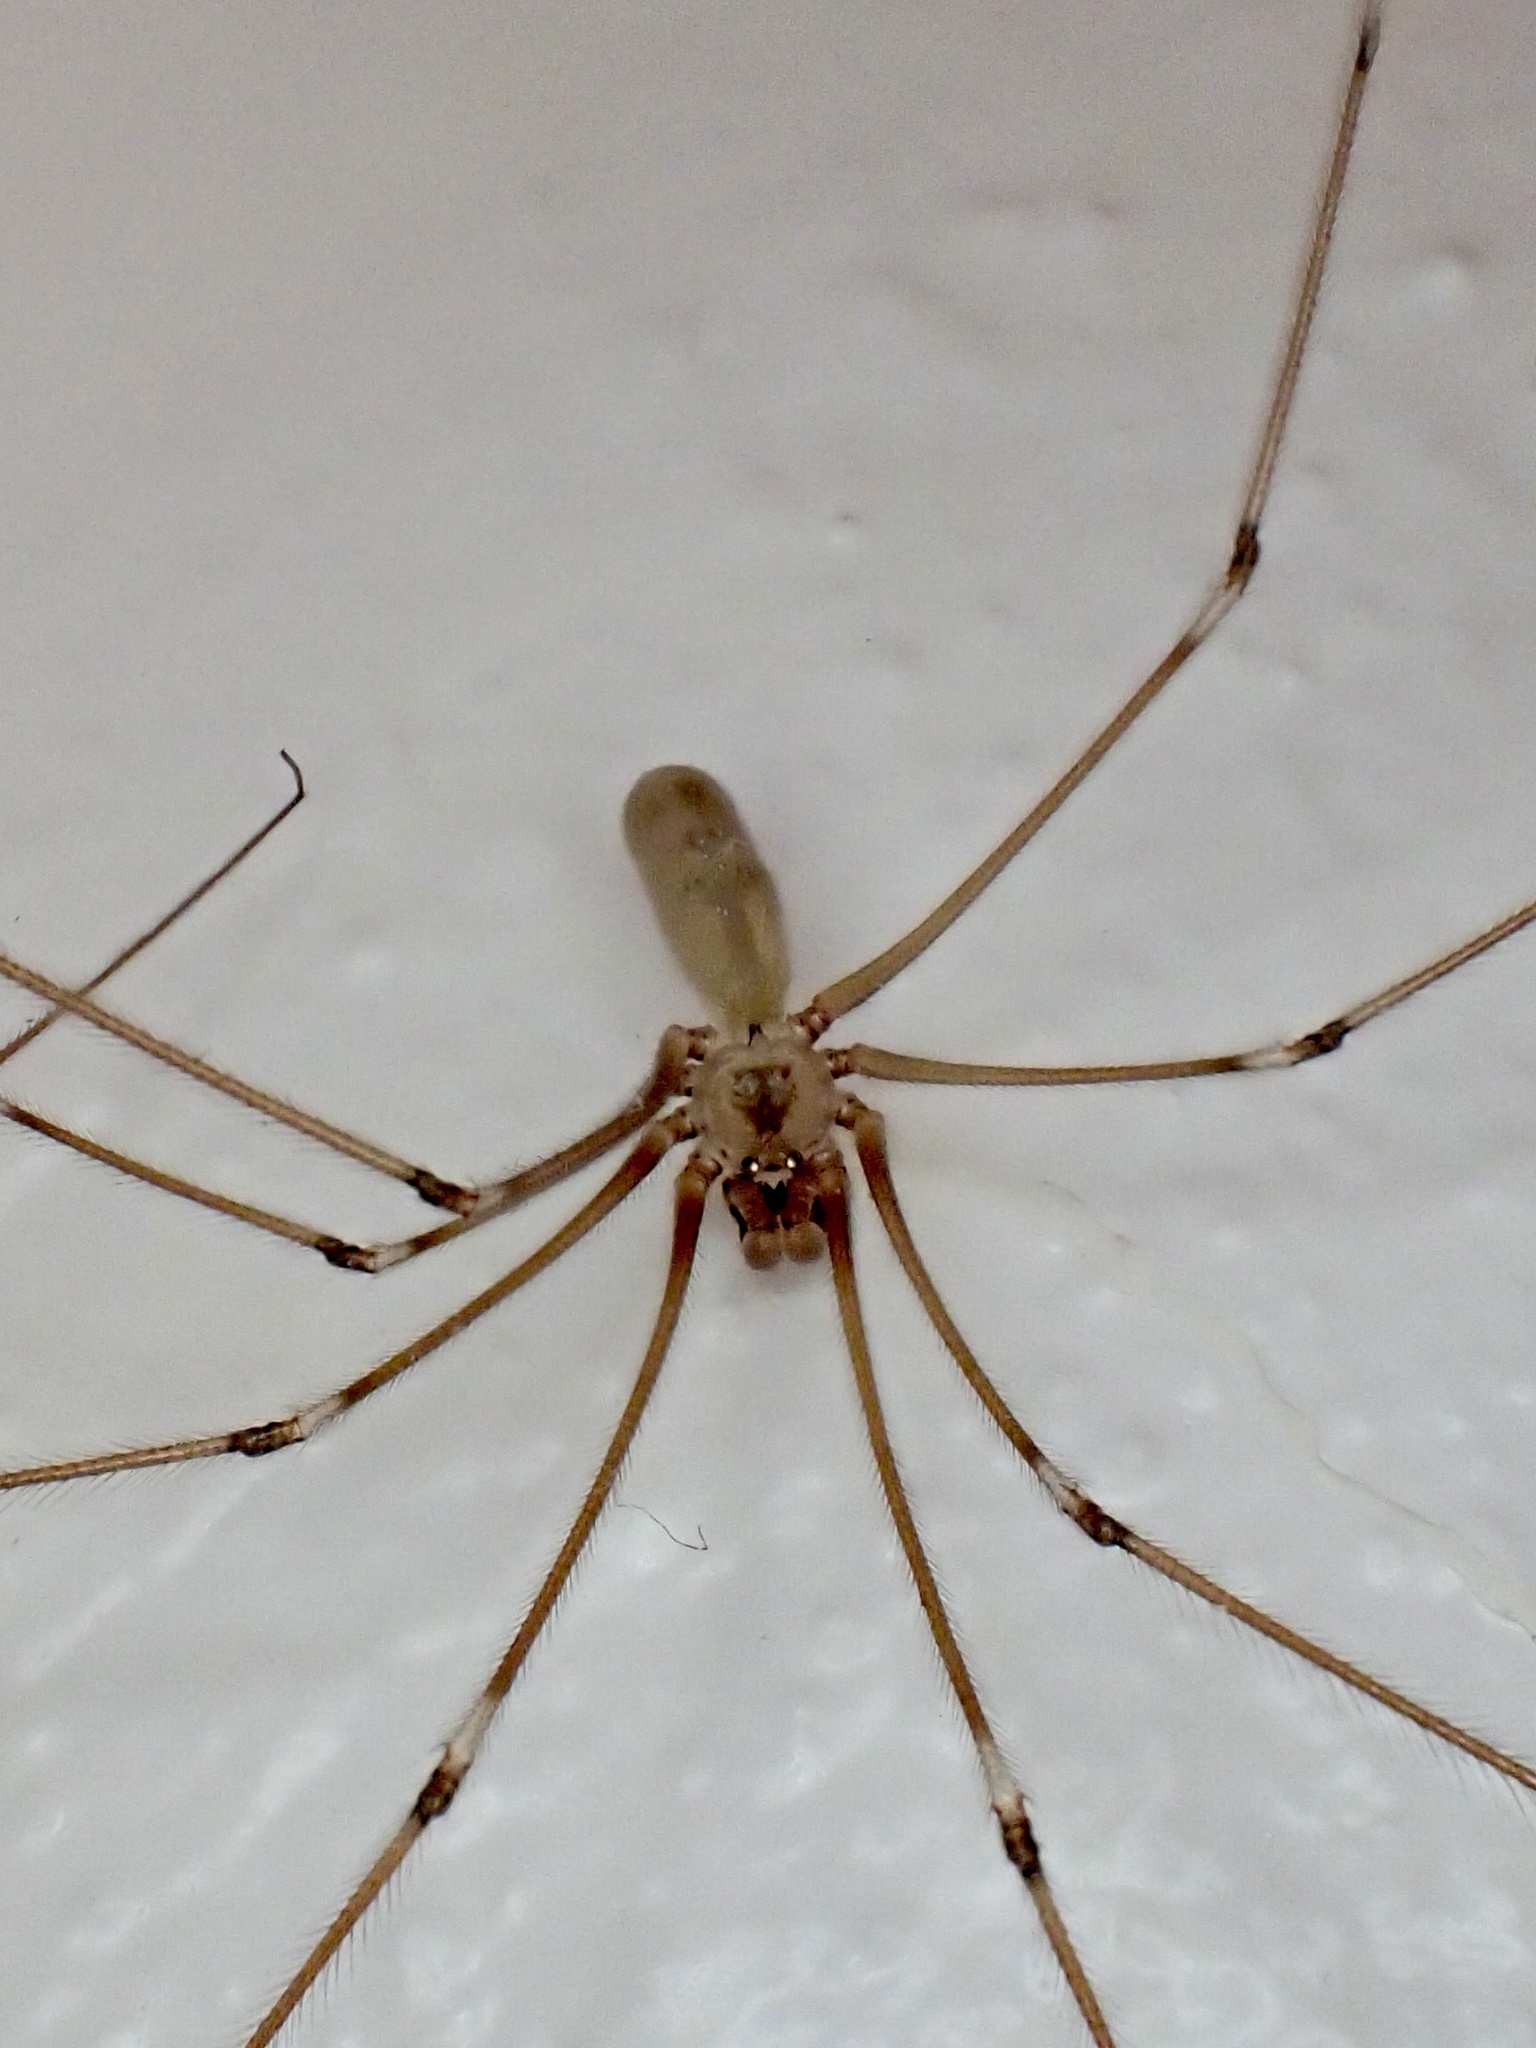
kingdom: Animalia
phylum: Arthropoda
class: Arachnida
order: Araneae
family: Pholcidae
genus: Pholcus
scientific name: Pholcus phalangioides
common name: Longbodied cellar spider
